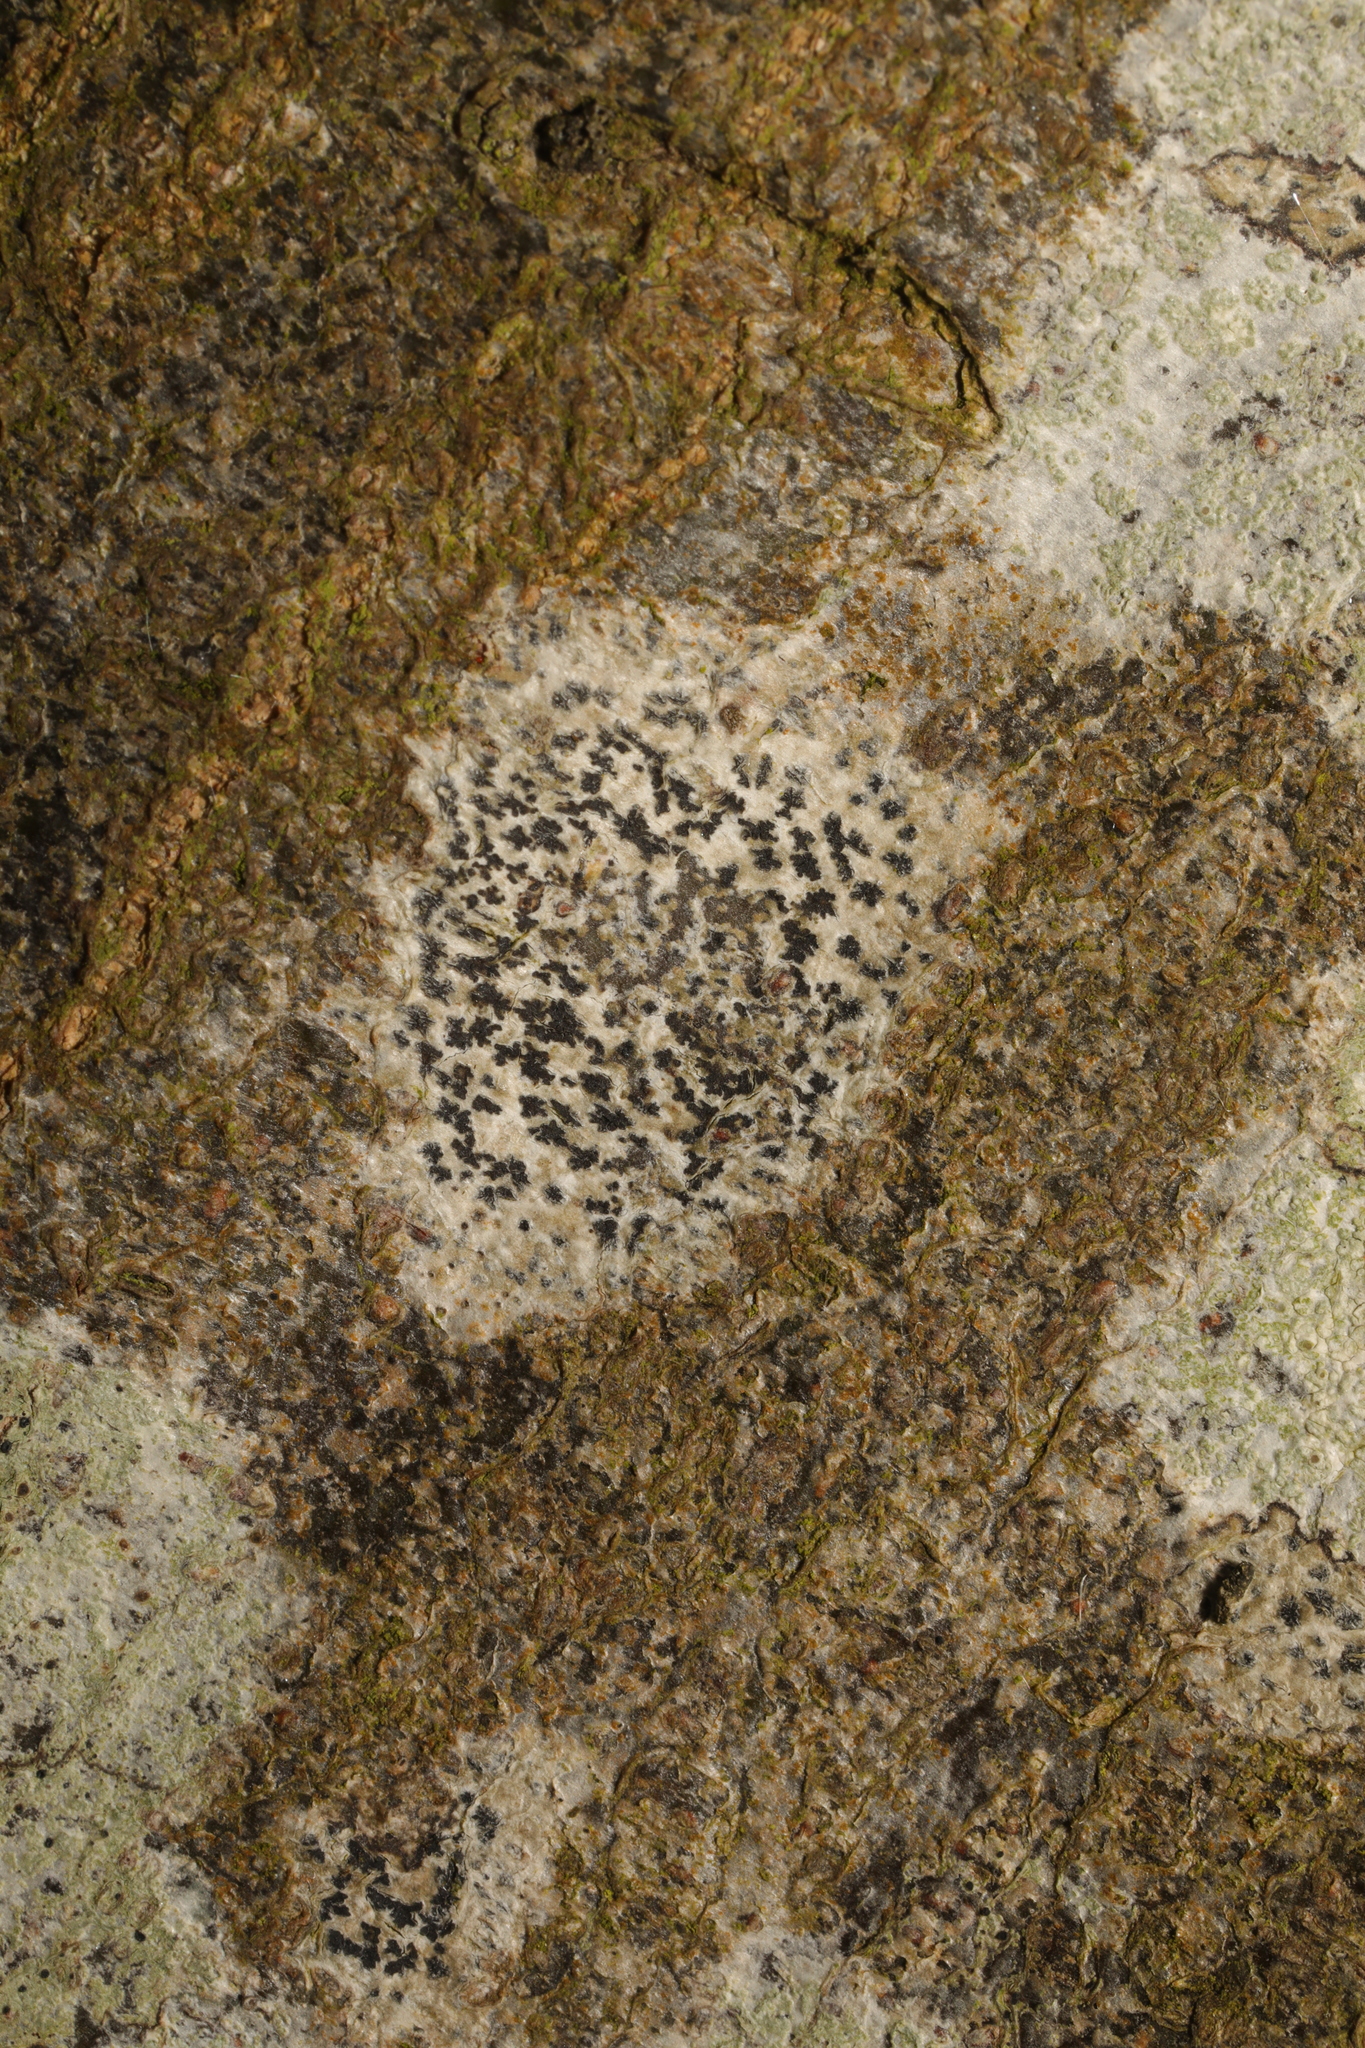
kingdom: Fungi
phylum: Ascomycota
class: Arthoniomycetes
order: Arthoniales
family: Arthoniaceae
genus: Arthonia
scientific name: Arthonia radiata
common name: Asterisk lichen
